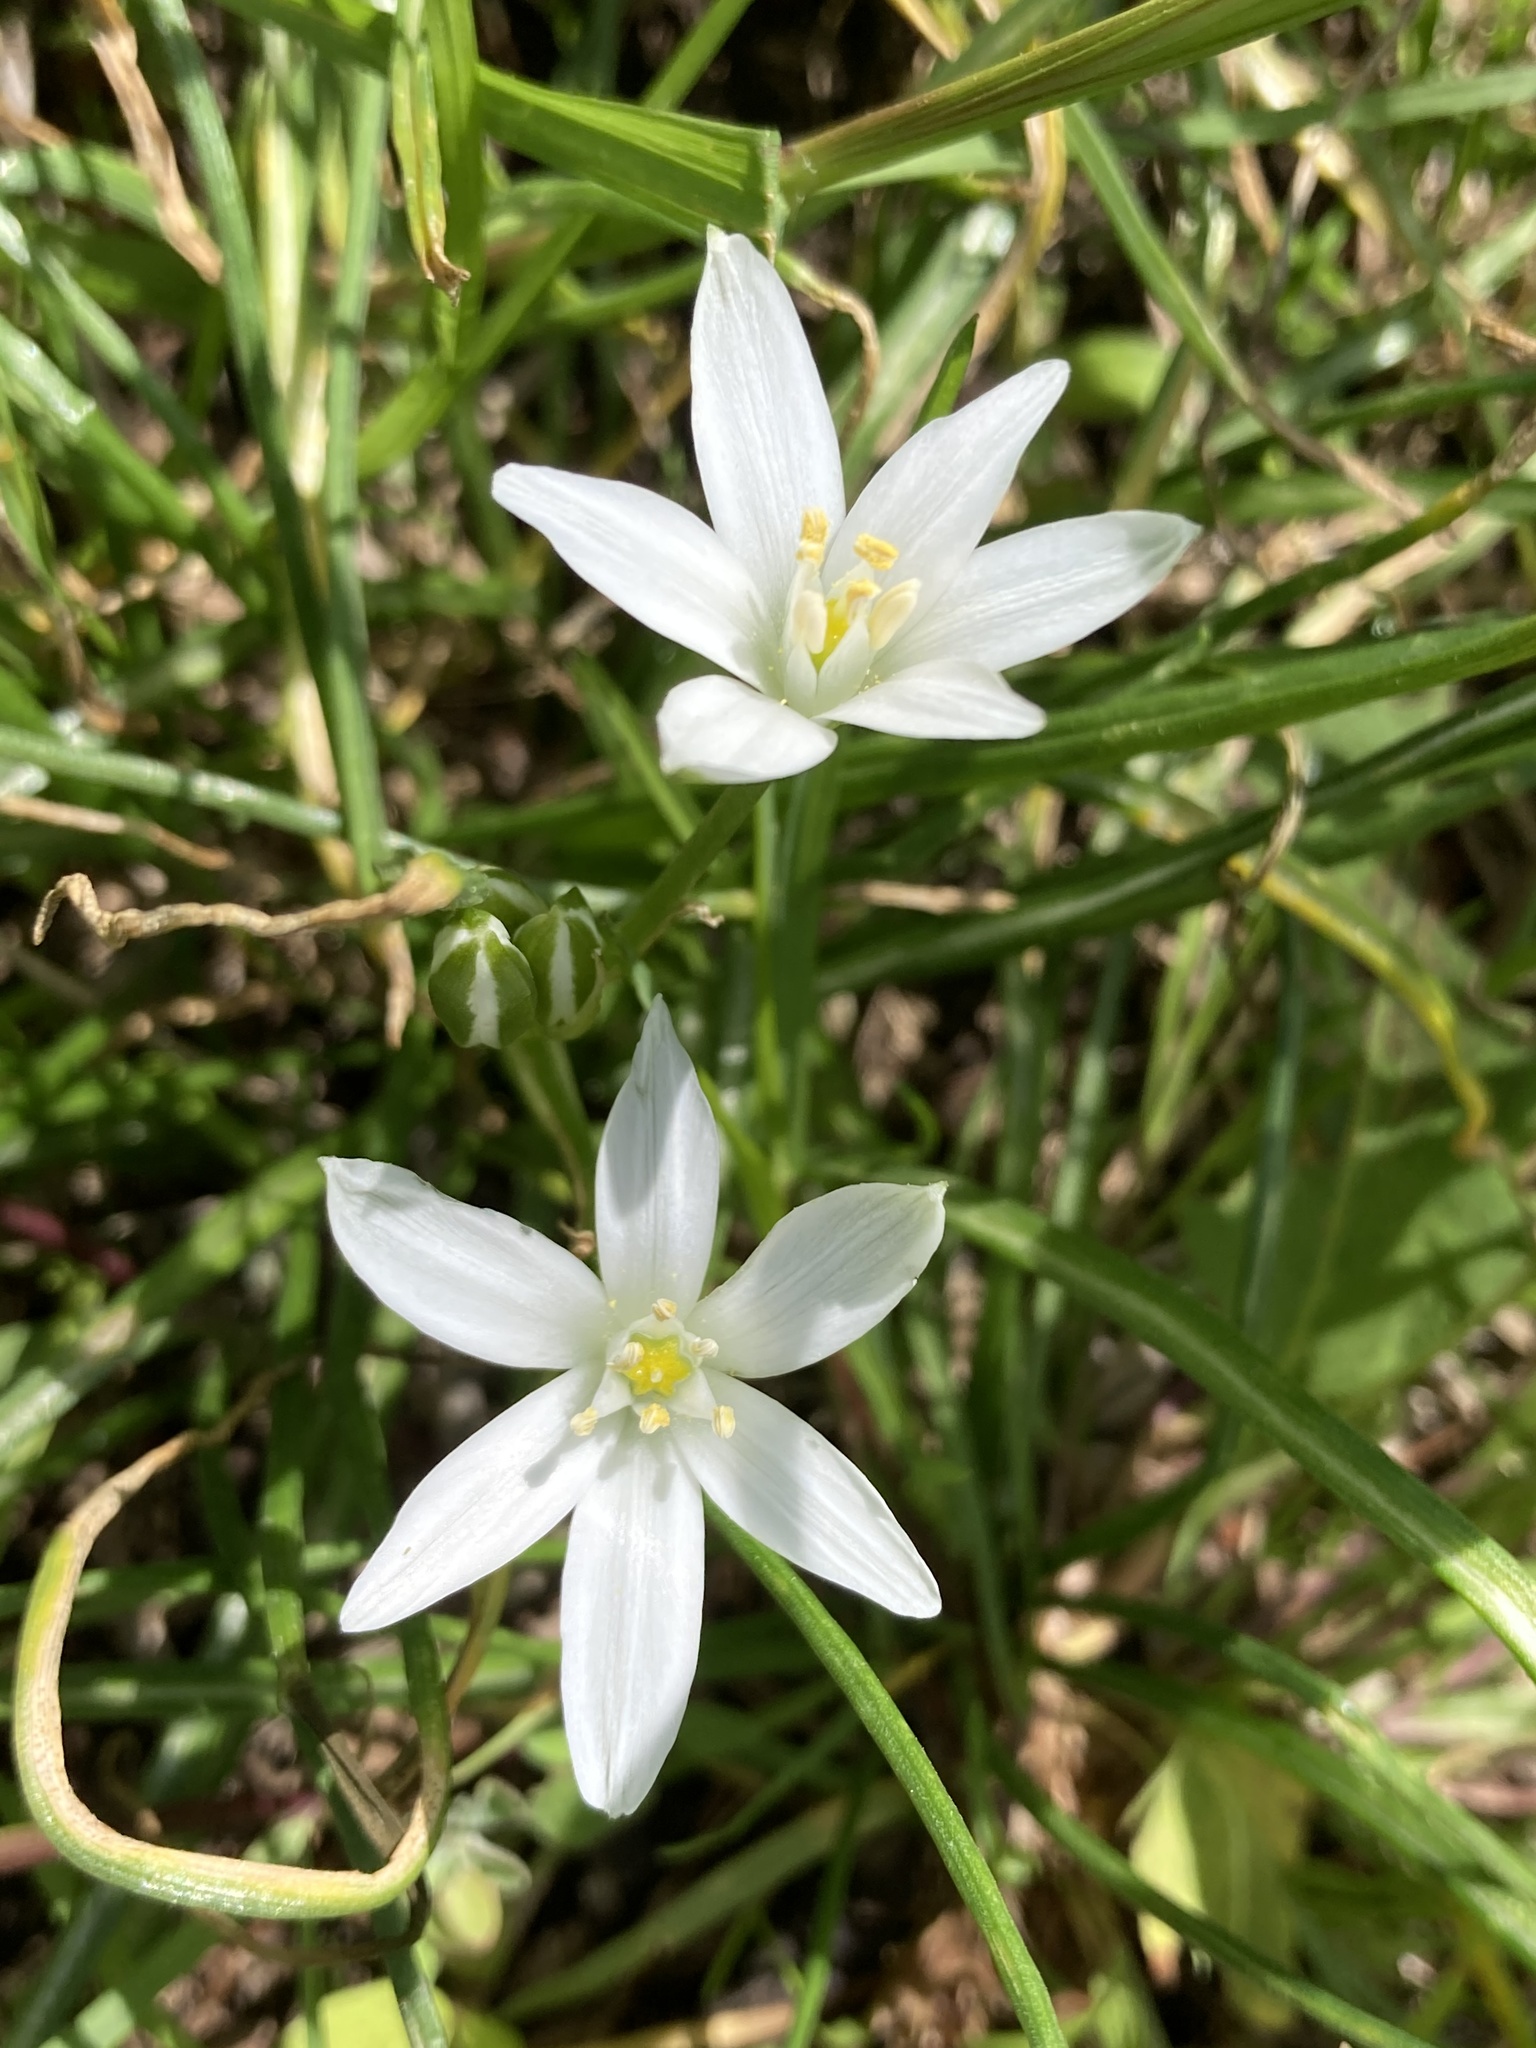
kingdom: Plantae
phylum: Tracheophyta
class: Liliopsida
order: Asparagales
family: Asparagaceae
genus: Ornithogalum
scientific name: Ornithogalum umbellatum
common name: Garden star-of-bethlehem
